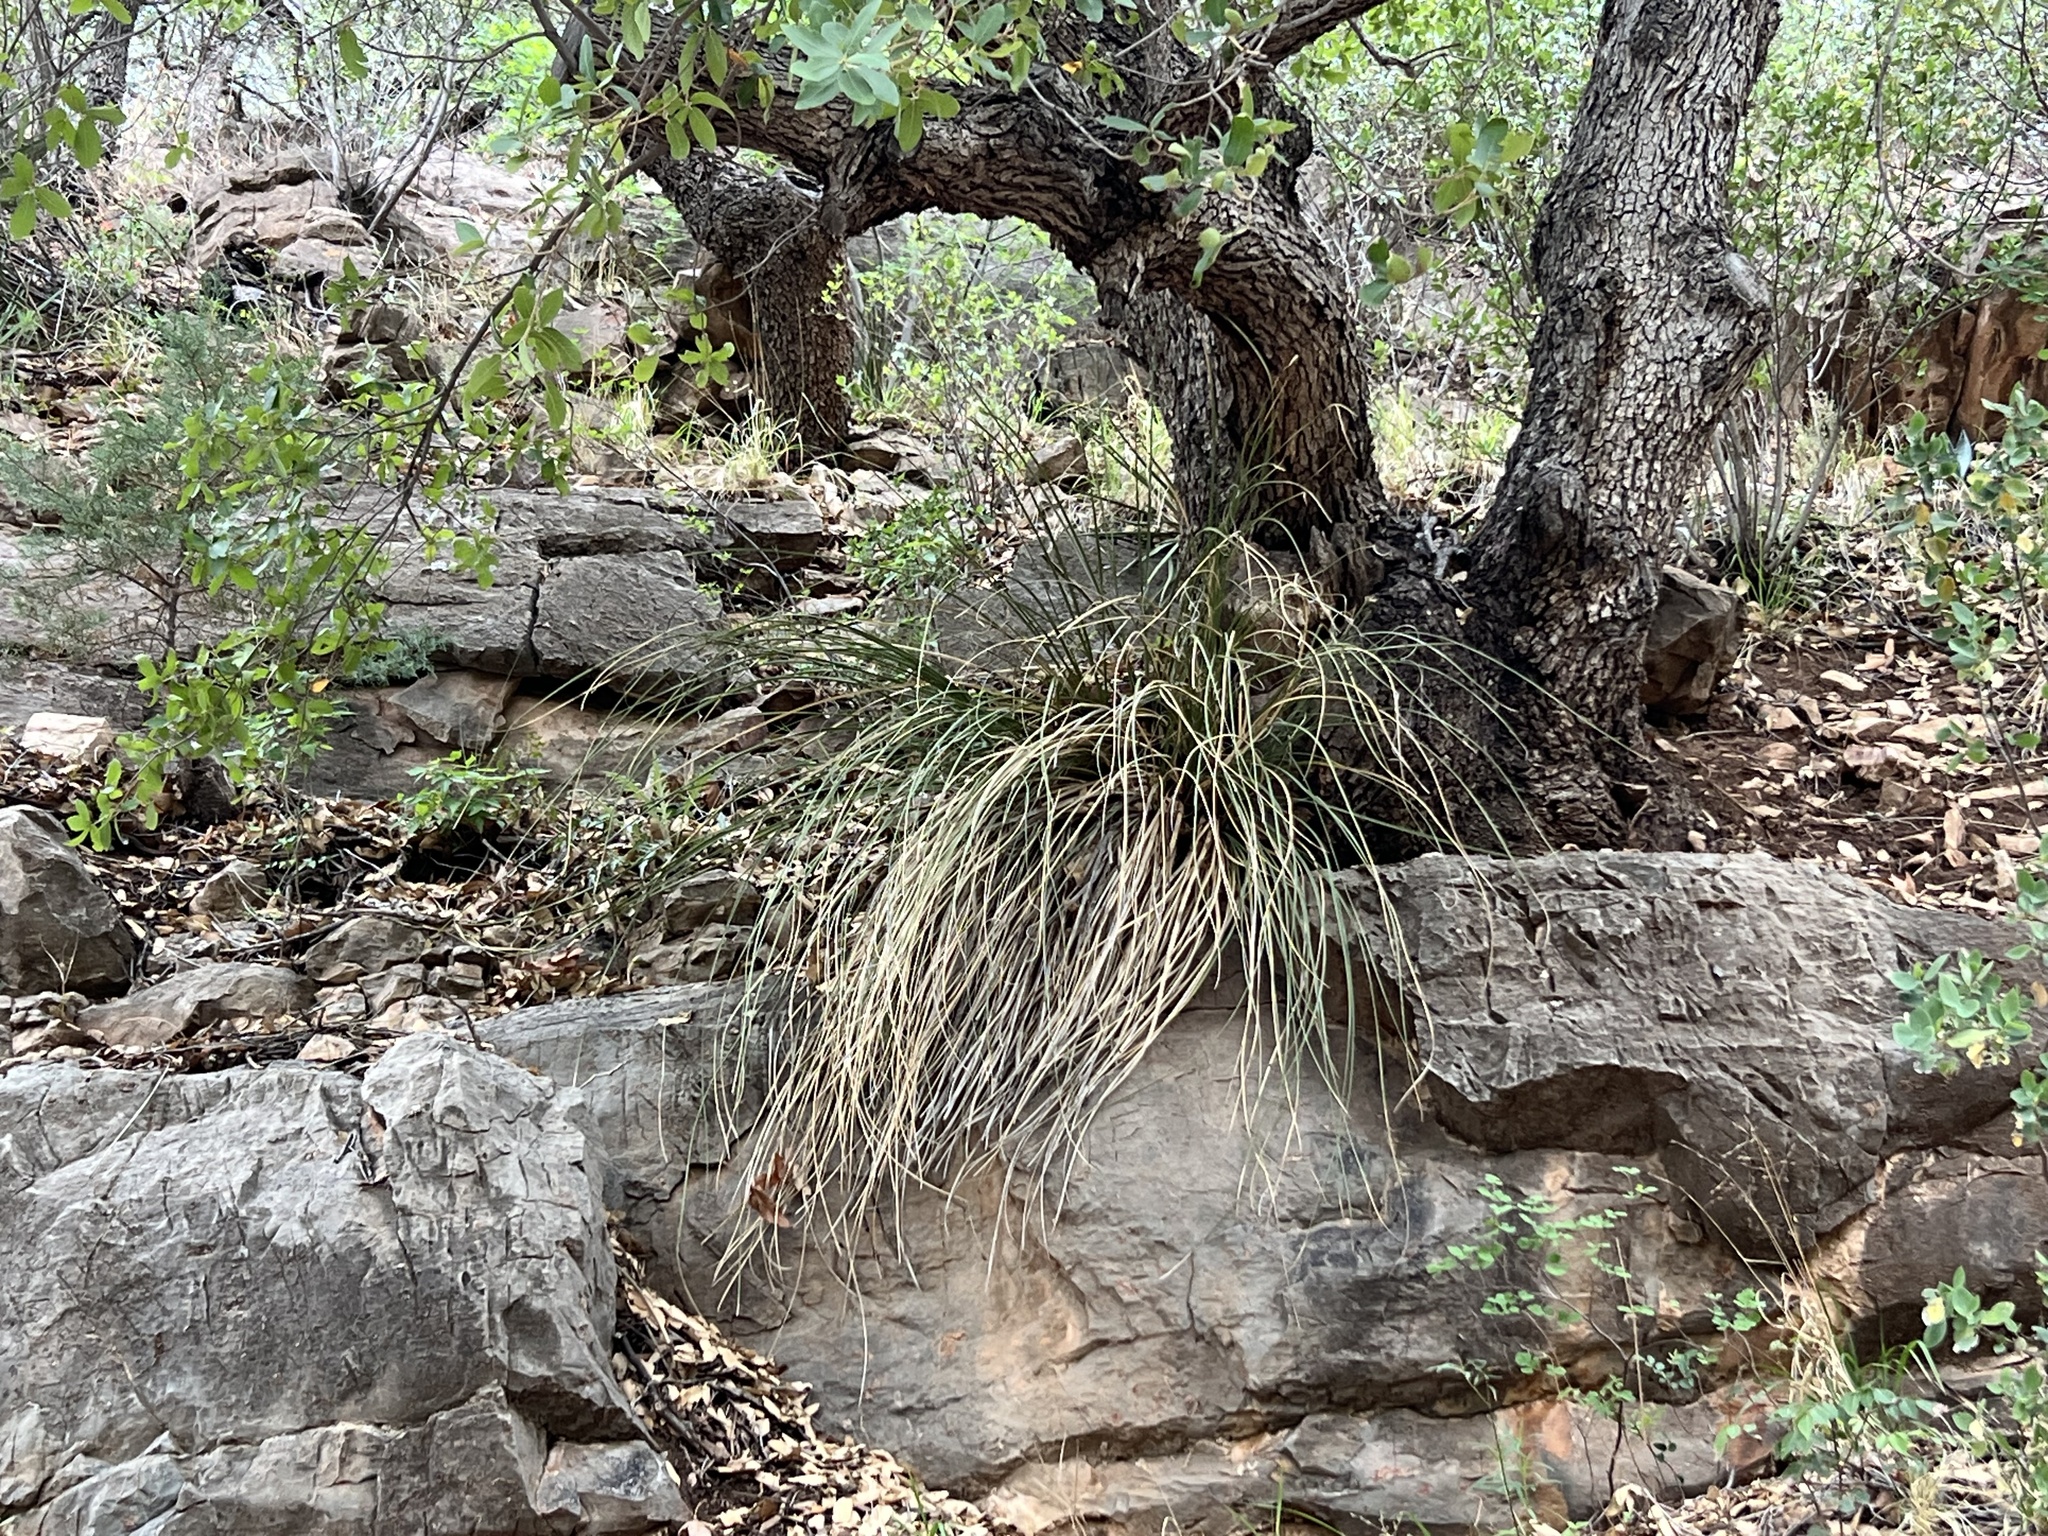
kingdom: Plantae
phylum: Tracheophyta
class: Liliopsida
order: Asparagales
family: Asparagaceae
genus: Nolina
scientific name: Nolina microcarpa
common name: Bear-grass
